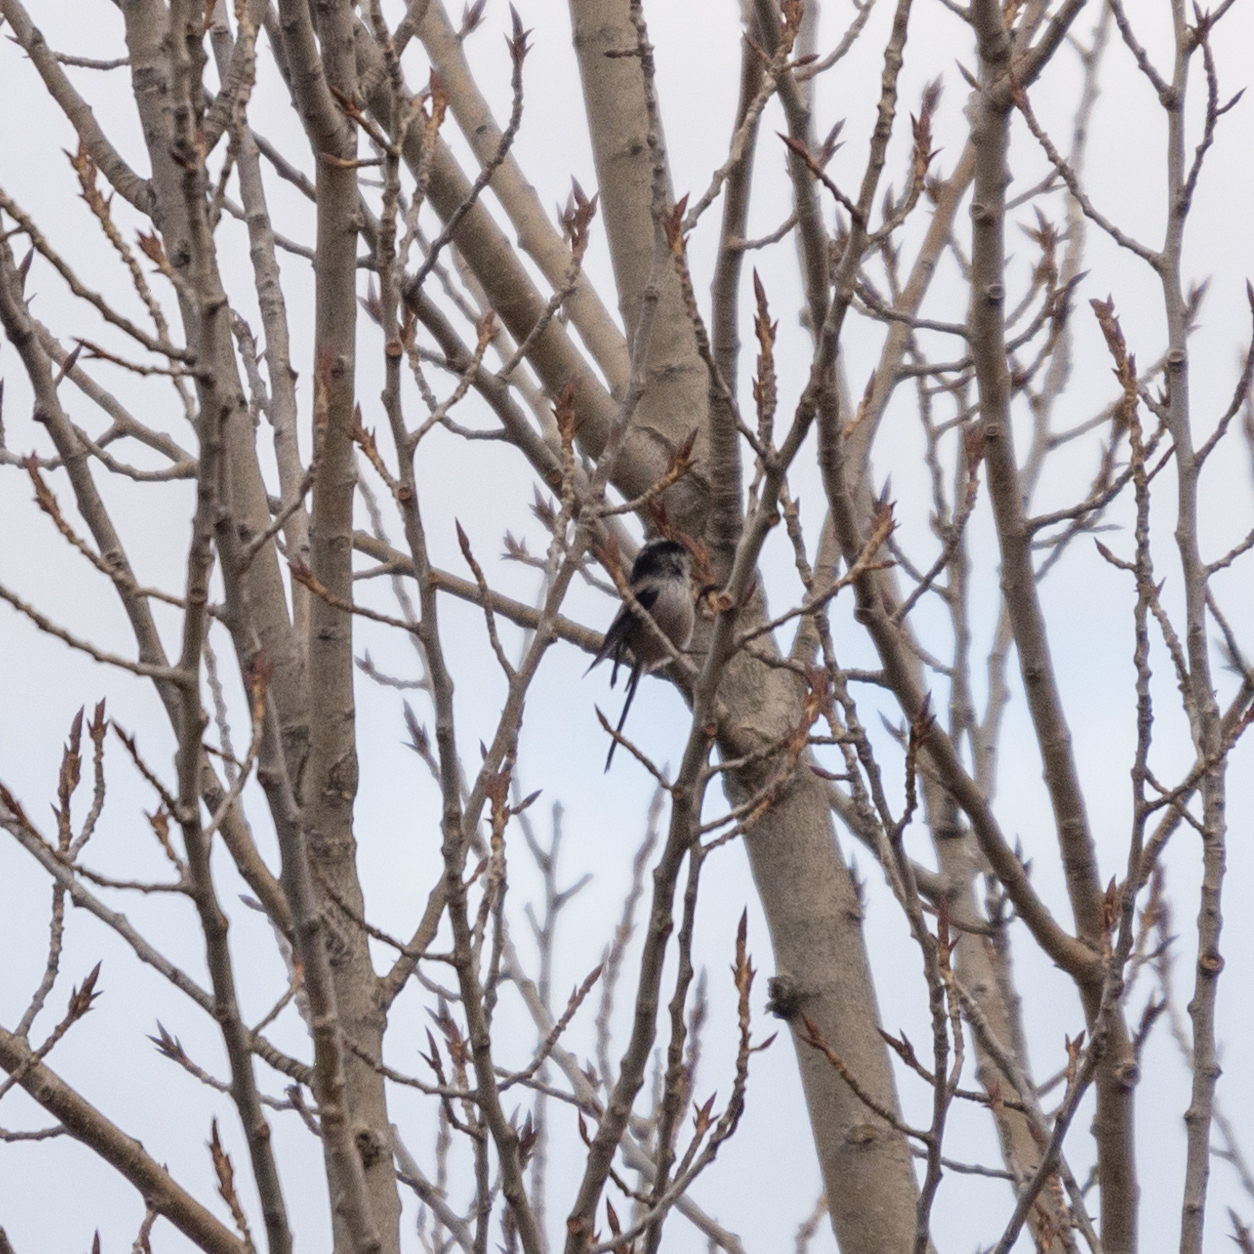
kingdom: Animalia
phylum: Chordata
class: Aves
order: Passeriformes
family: Aegithalidae
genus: Aegithalos
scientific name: Aegithalos caudatus
